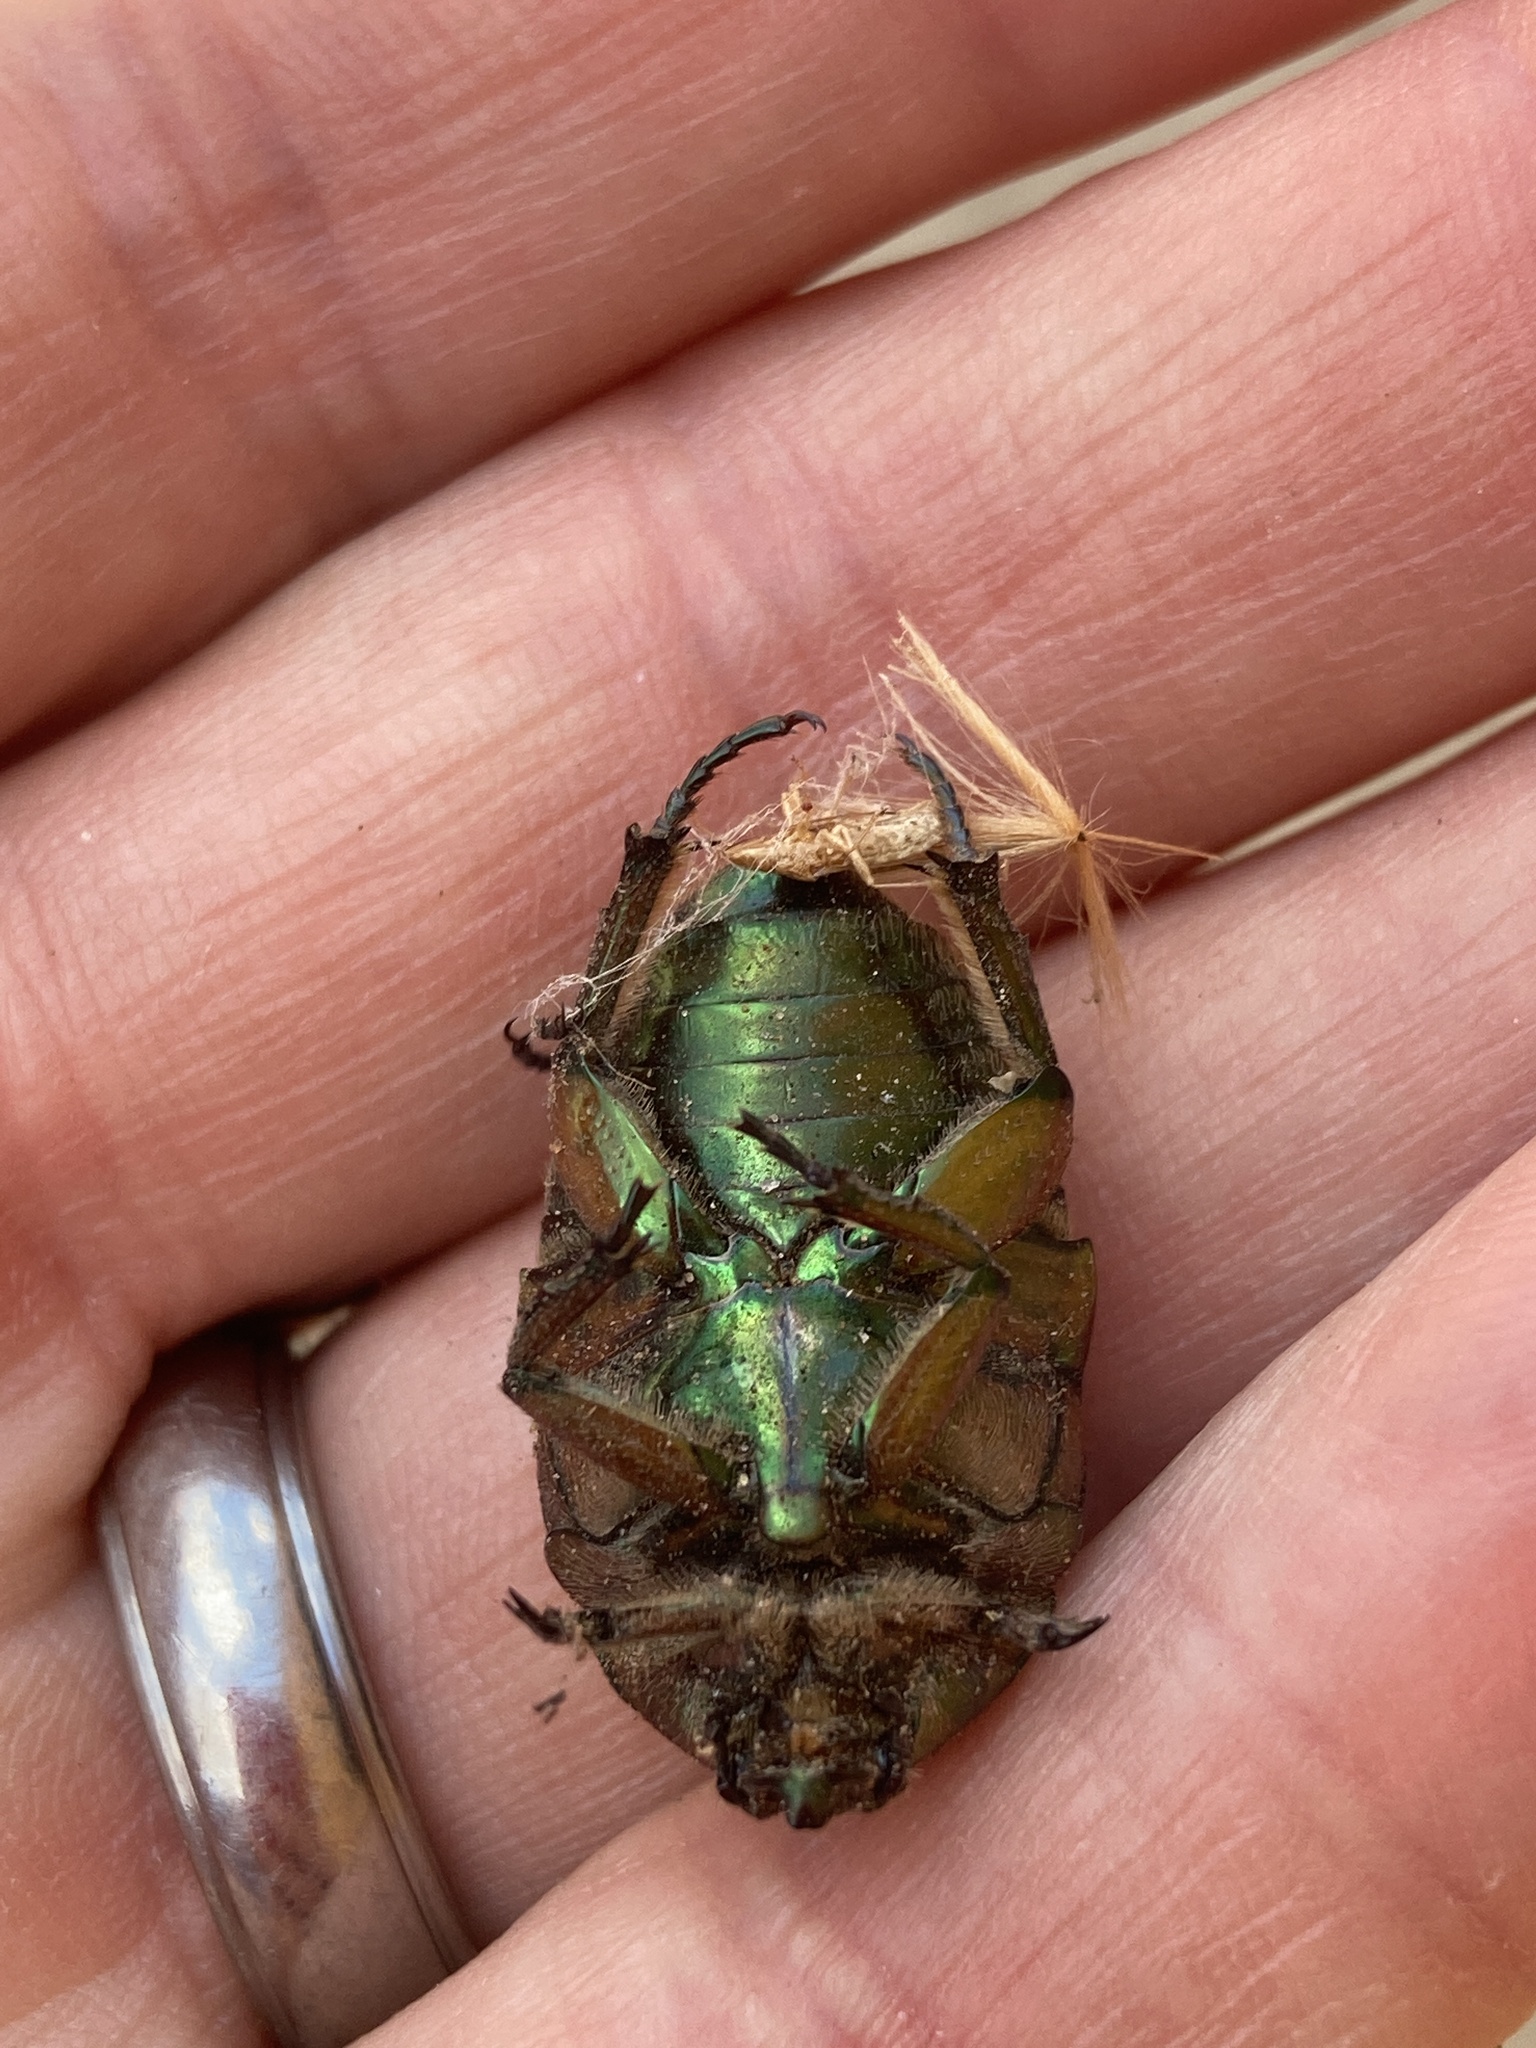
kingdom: Animalia
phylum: Arthropoda
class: Insecta
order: Coleoptera
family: Scarabaeidae
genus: Cotinis
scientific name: Cotinis nitida
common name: Common green june beetle
